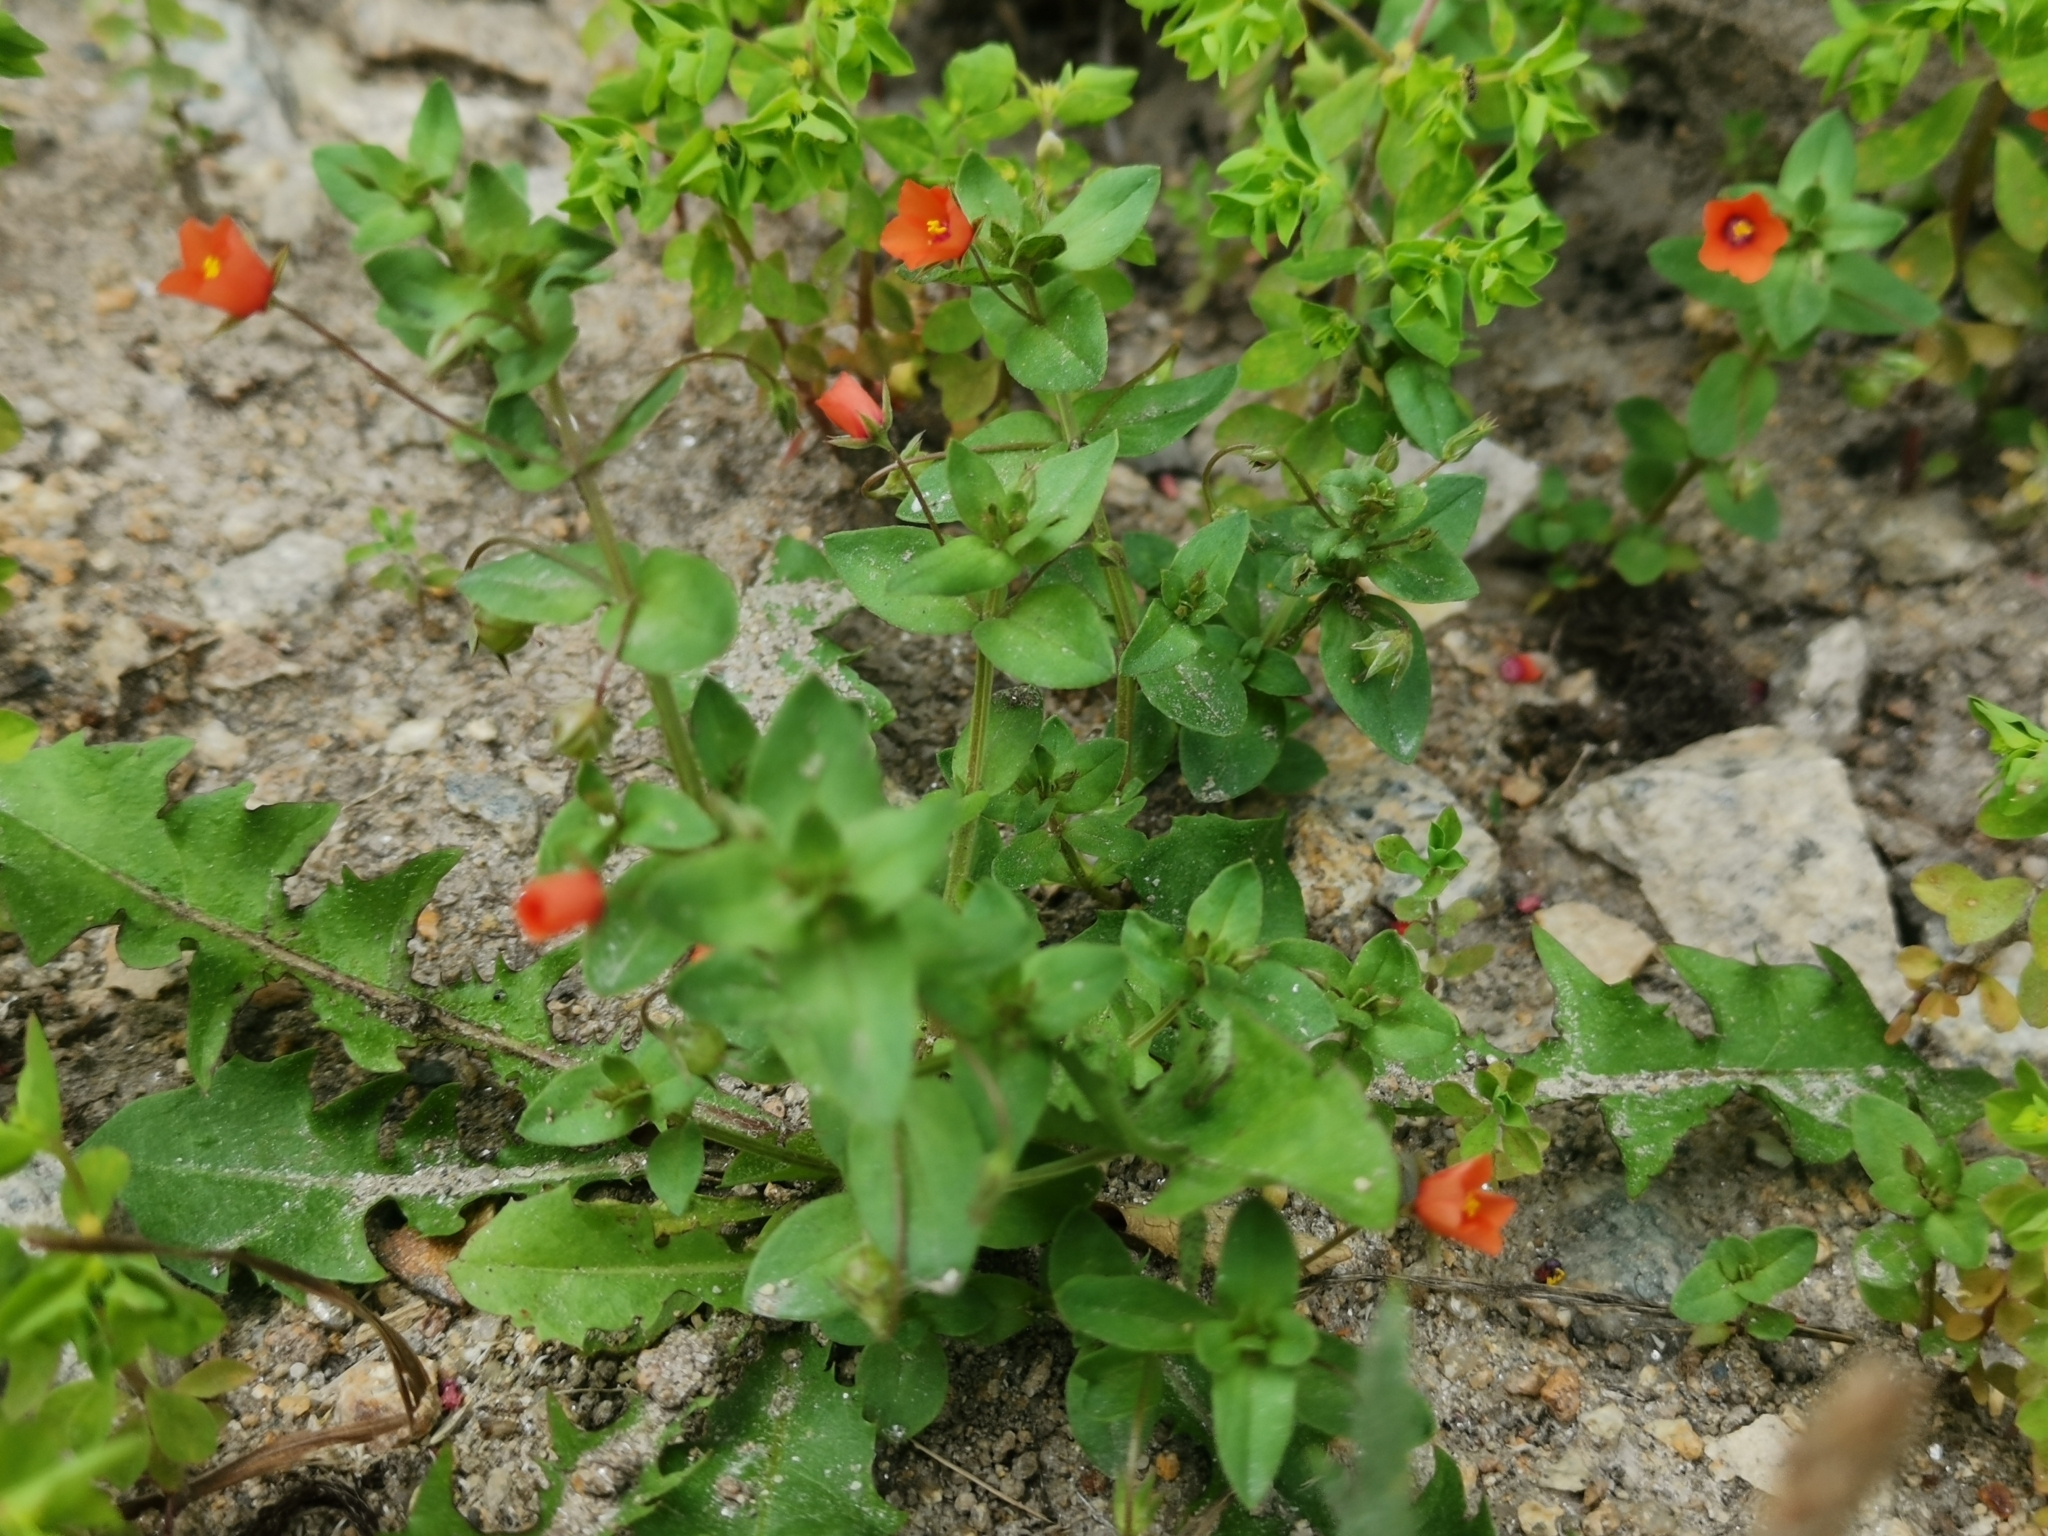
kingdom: Plantae
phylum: Tracheophyta
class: Magnoliopsida
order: Ericales
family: Primulaceae
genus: Lysimachia
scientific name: Lysimachia arvensis
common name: Scarlet pimpernel
